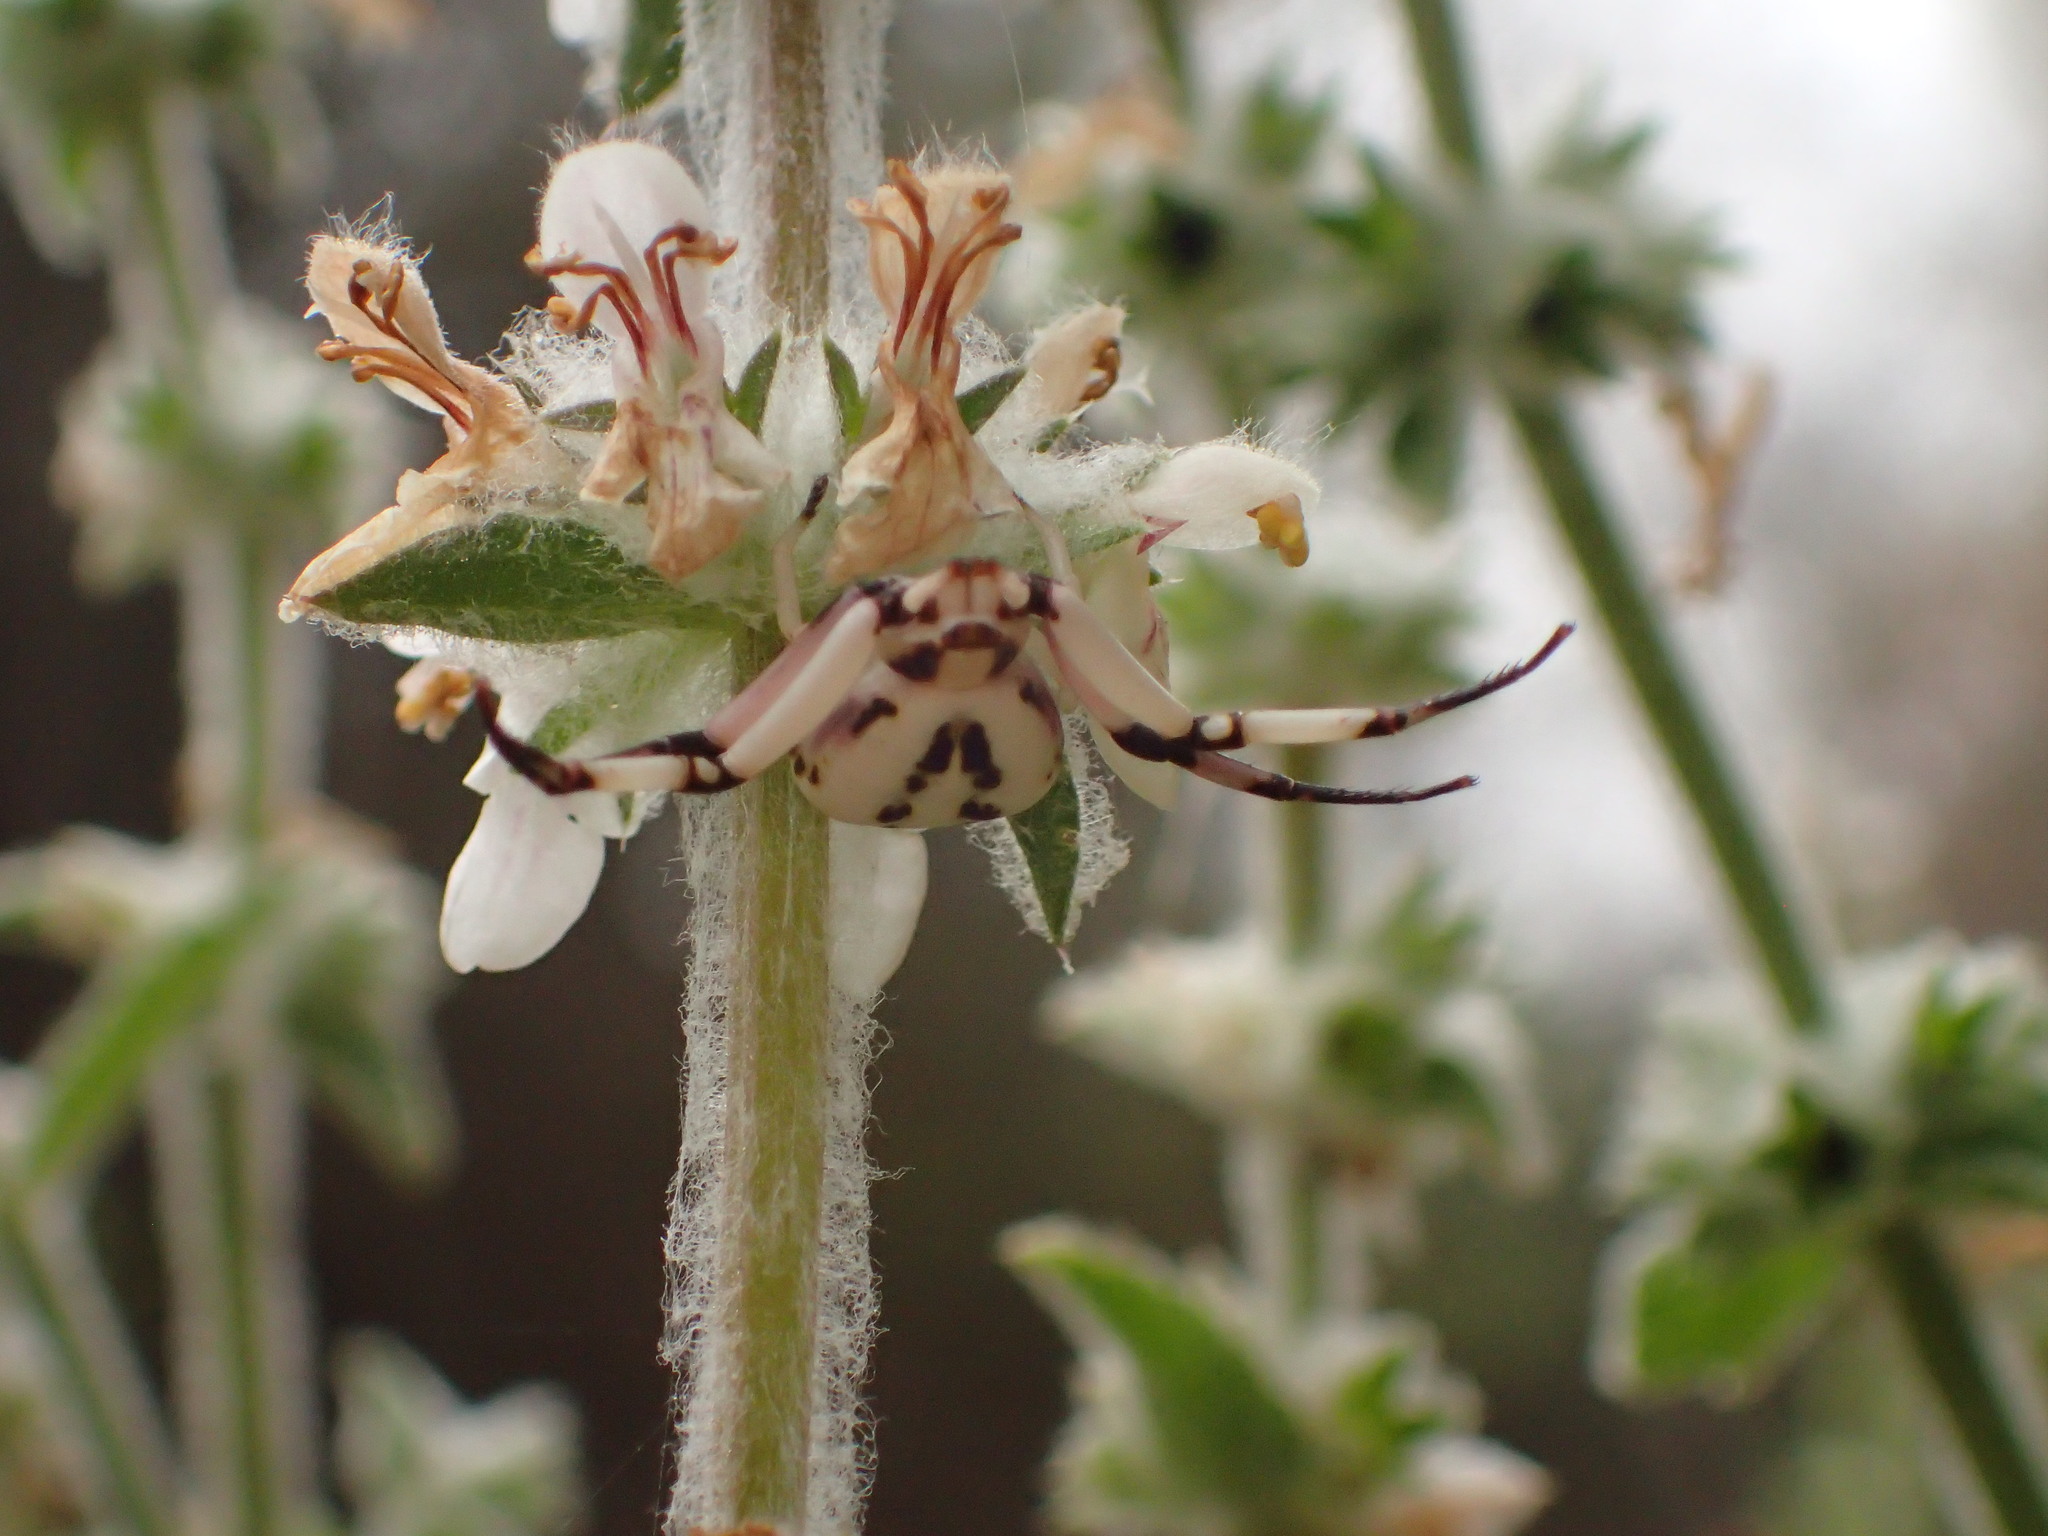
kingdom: Animalia
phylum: Arthropoda
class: Arachnida
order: Araneae
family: Thomisidae
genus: Misumenoides
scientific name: Misumenoides formosipes
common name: White-banded crab spider
